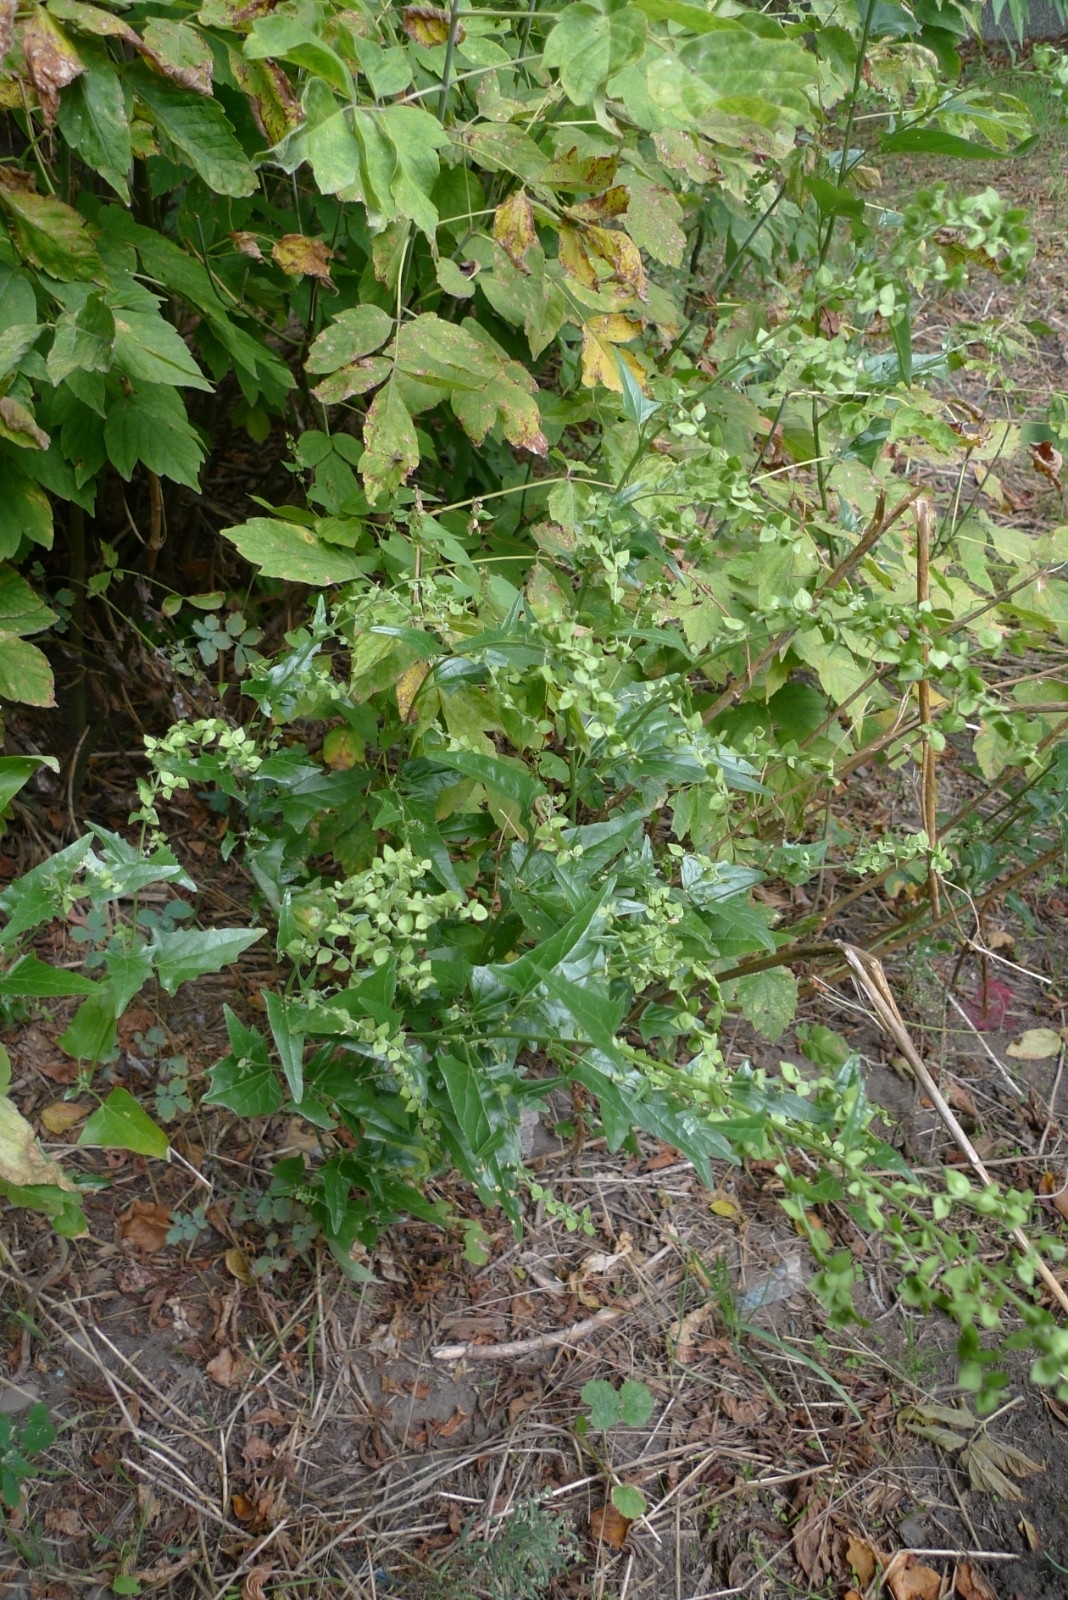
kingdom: Plantae
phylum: Tracheophyta
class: Magnoliopsida
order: Caryophyllales
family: Amaranthaceae
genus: Atriplex
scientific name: Atriplex sagittata
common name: Purple orache
